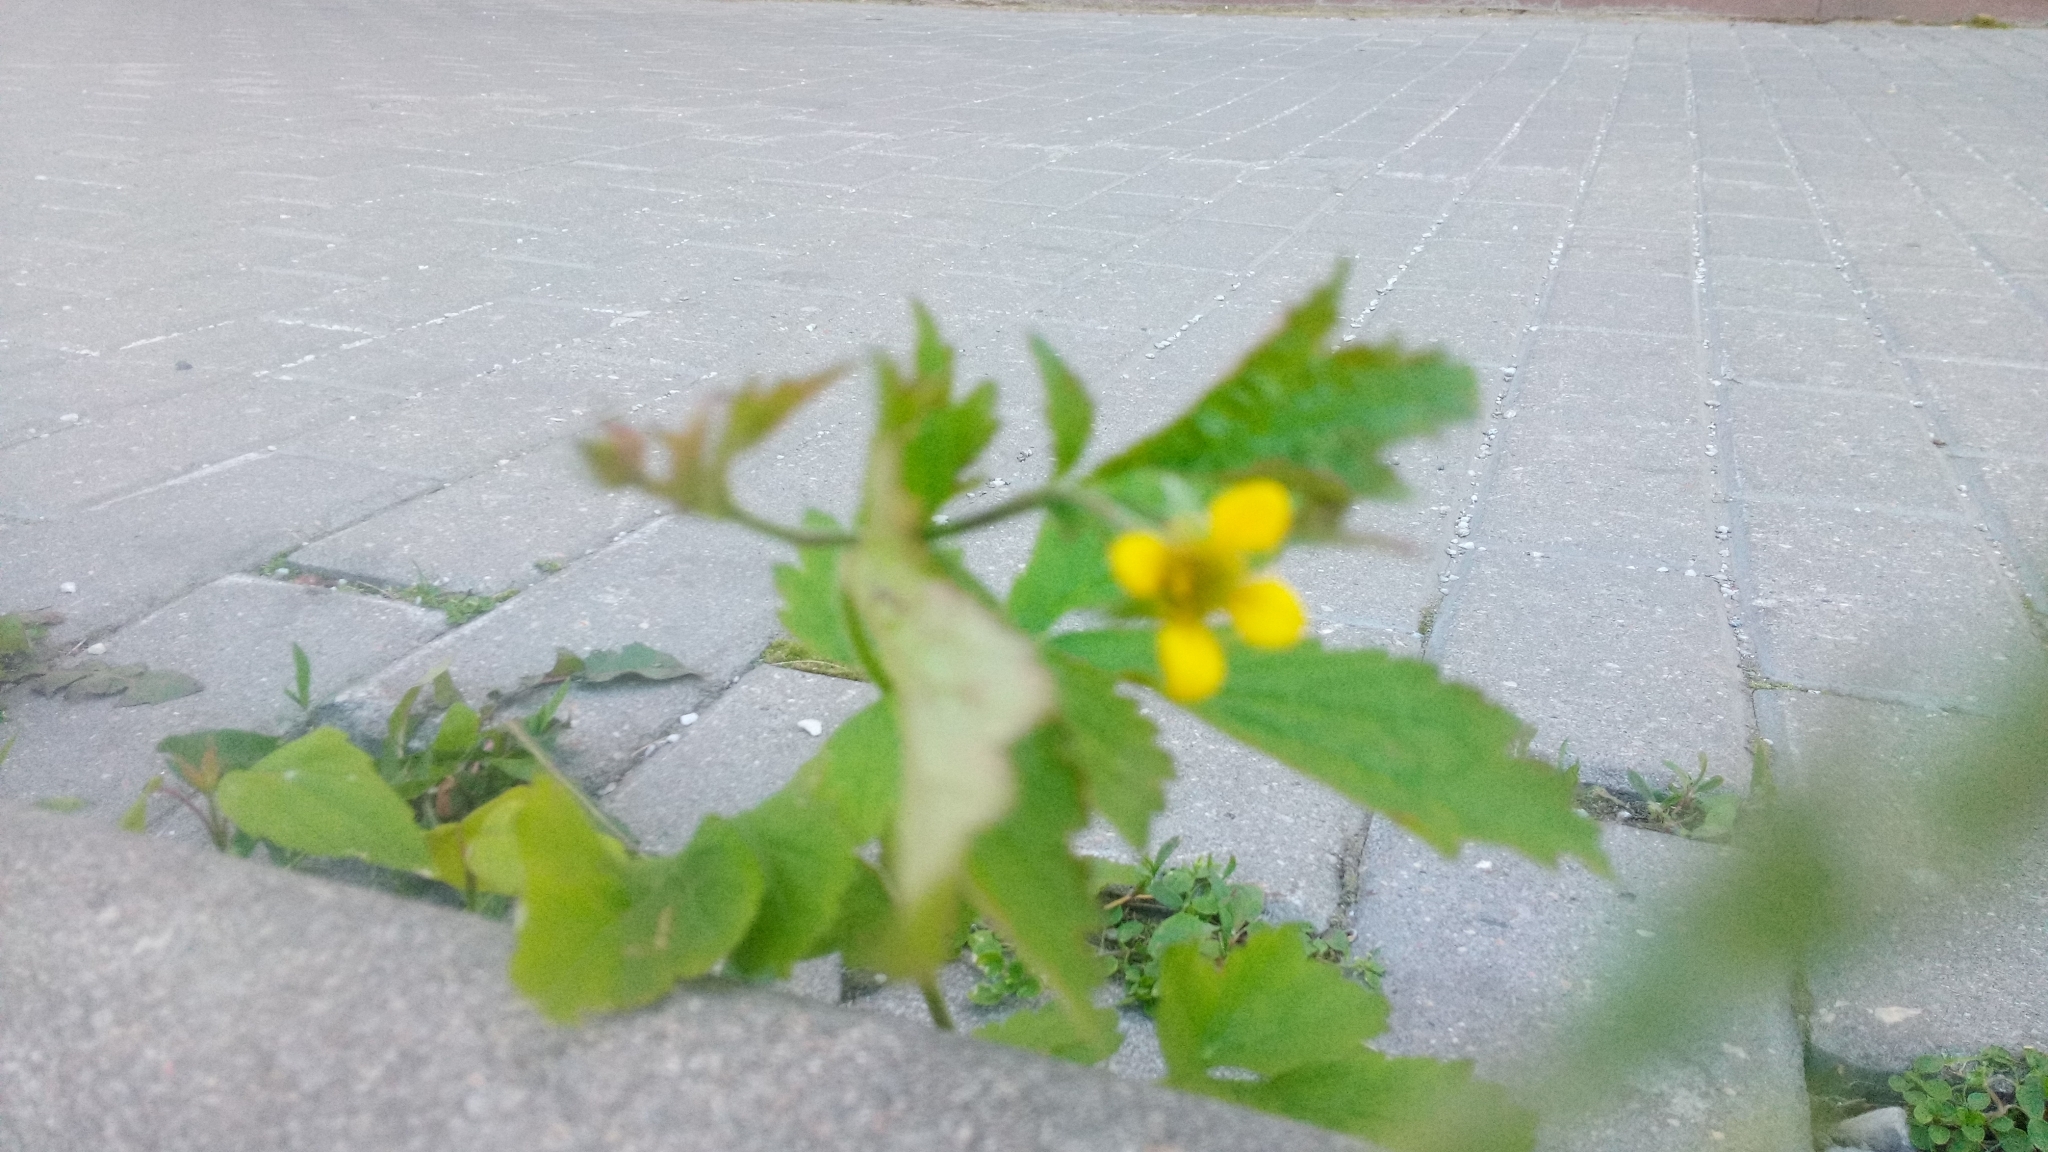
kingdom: Plantae
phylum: Tracheophyta
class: Magnoliopsida
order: Rosales
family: Rosaceae
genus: Geum
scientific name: Geum urbanum
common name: Wood avens
